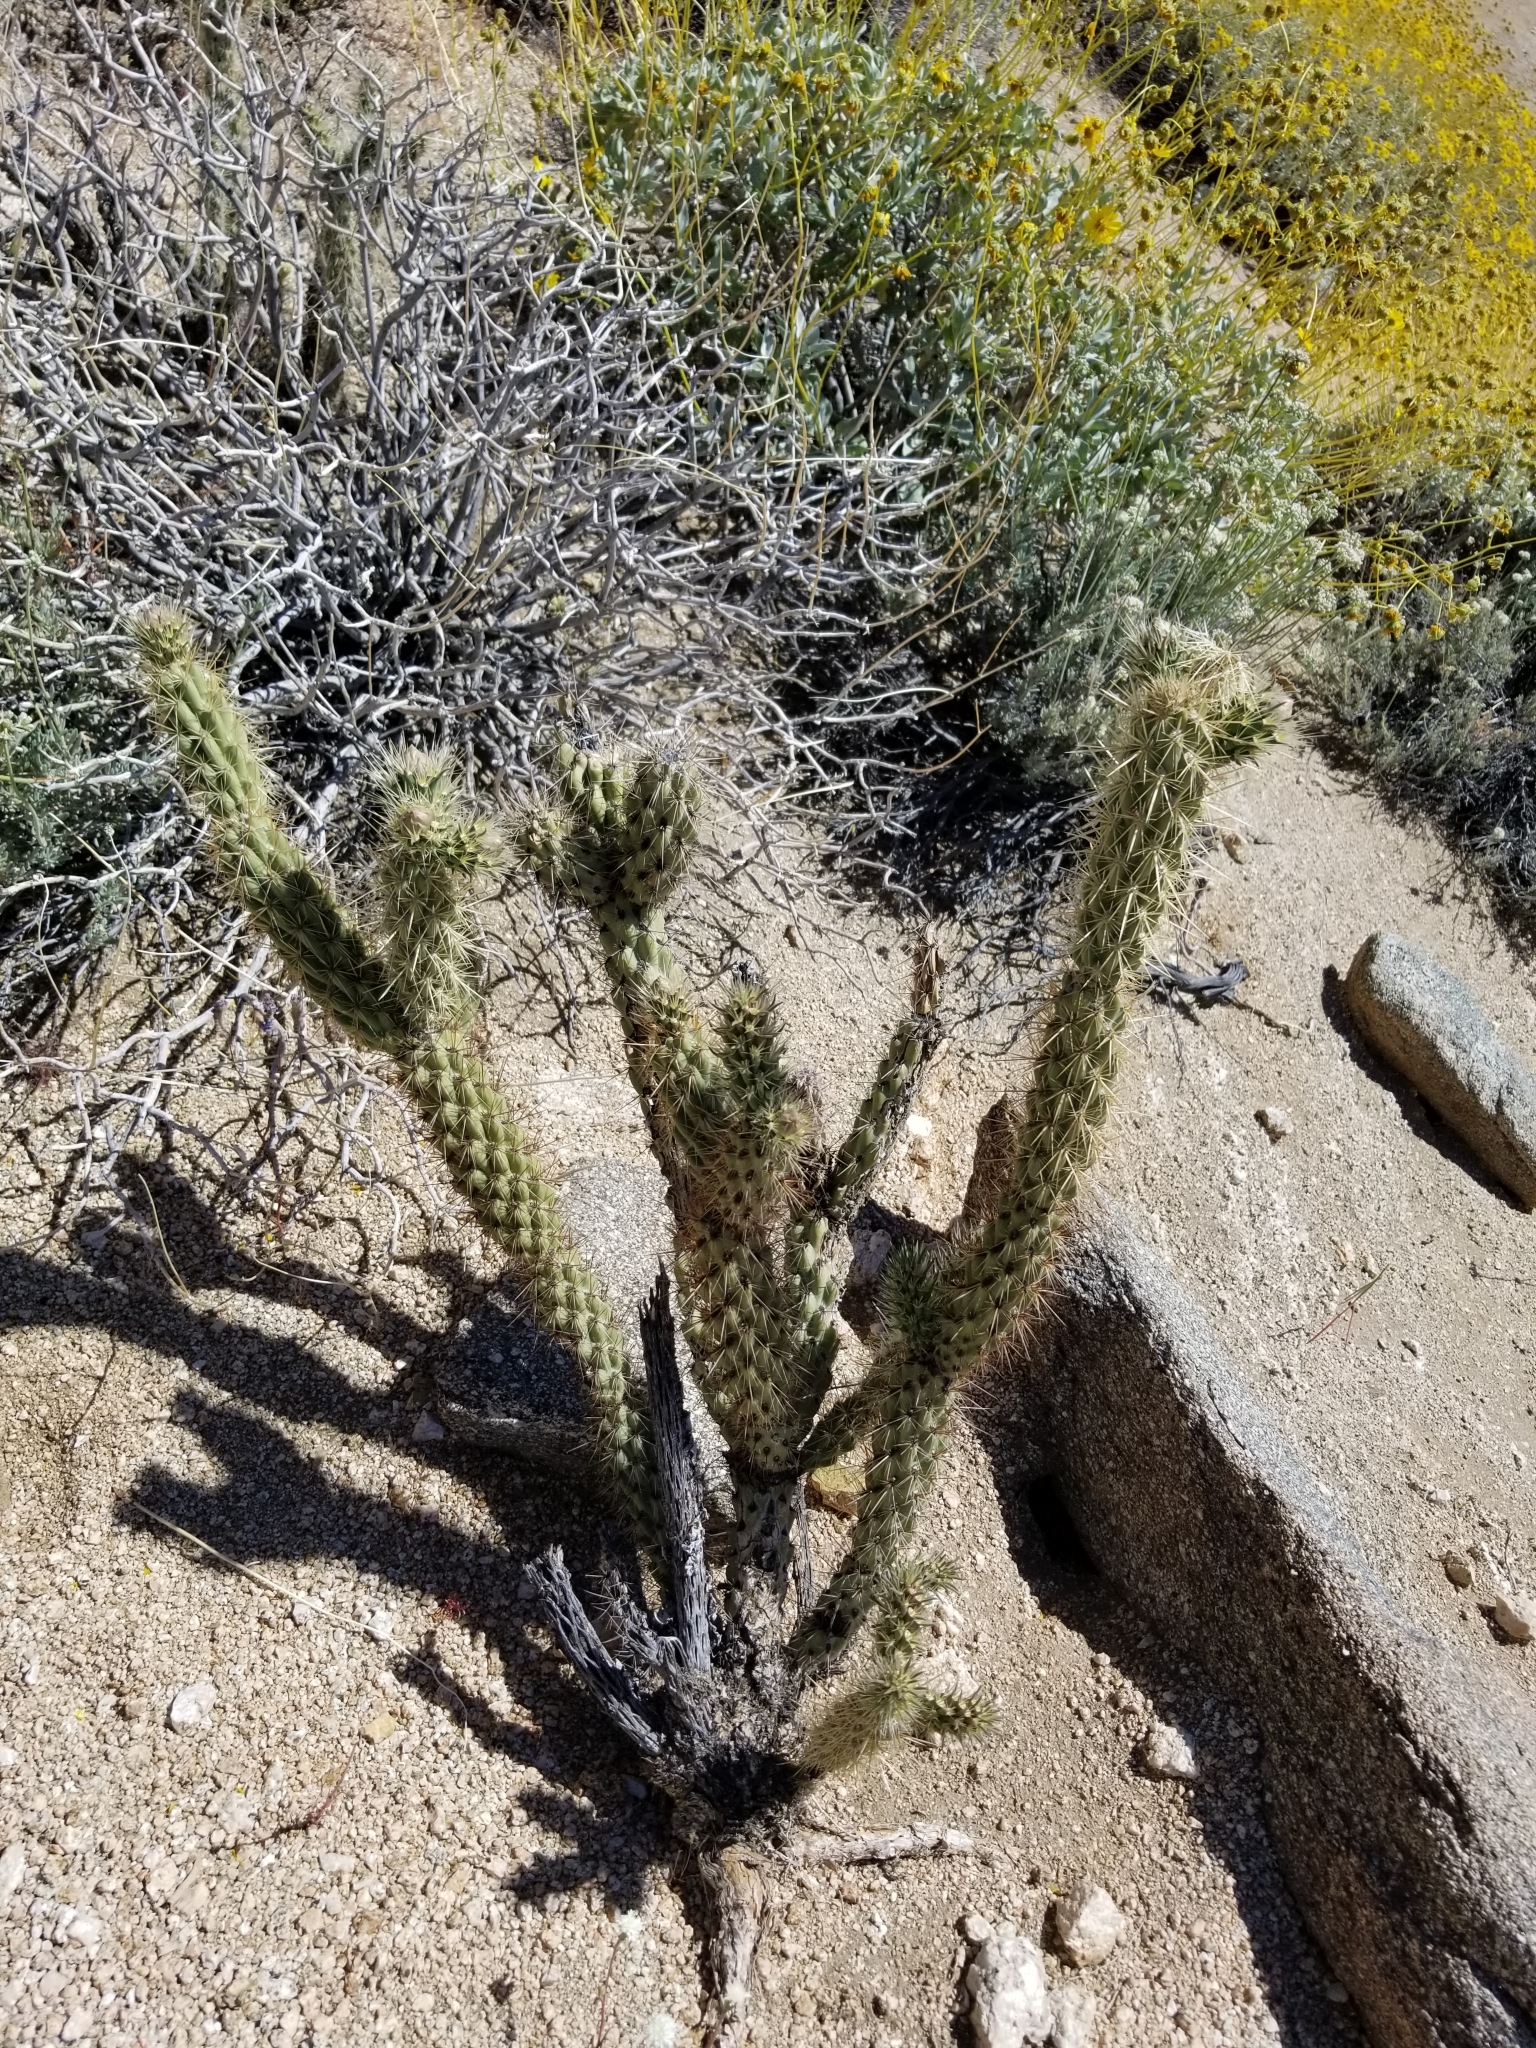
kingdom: Plantae
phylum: Tracheophyta
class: Magnoliopsida
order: Caryophyllales
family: Cactaceae
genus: Cylindropuntia
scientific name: Cylindropuntia ganderi
